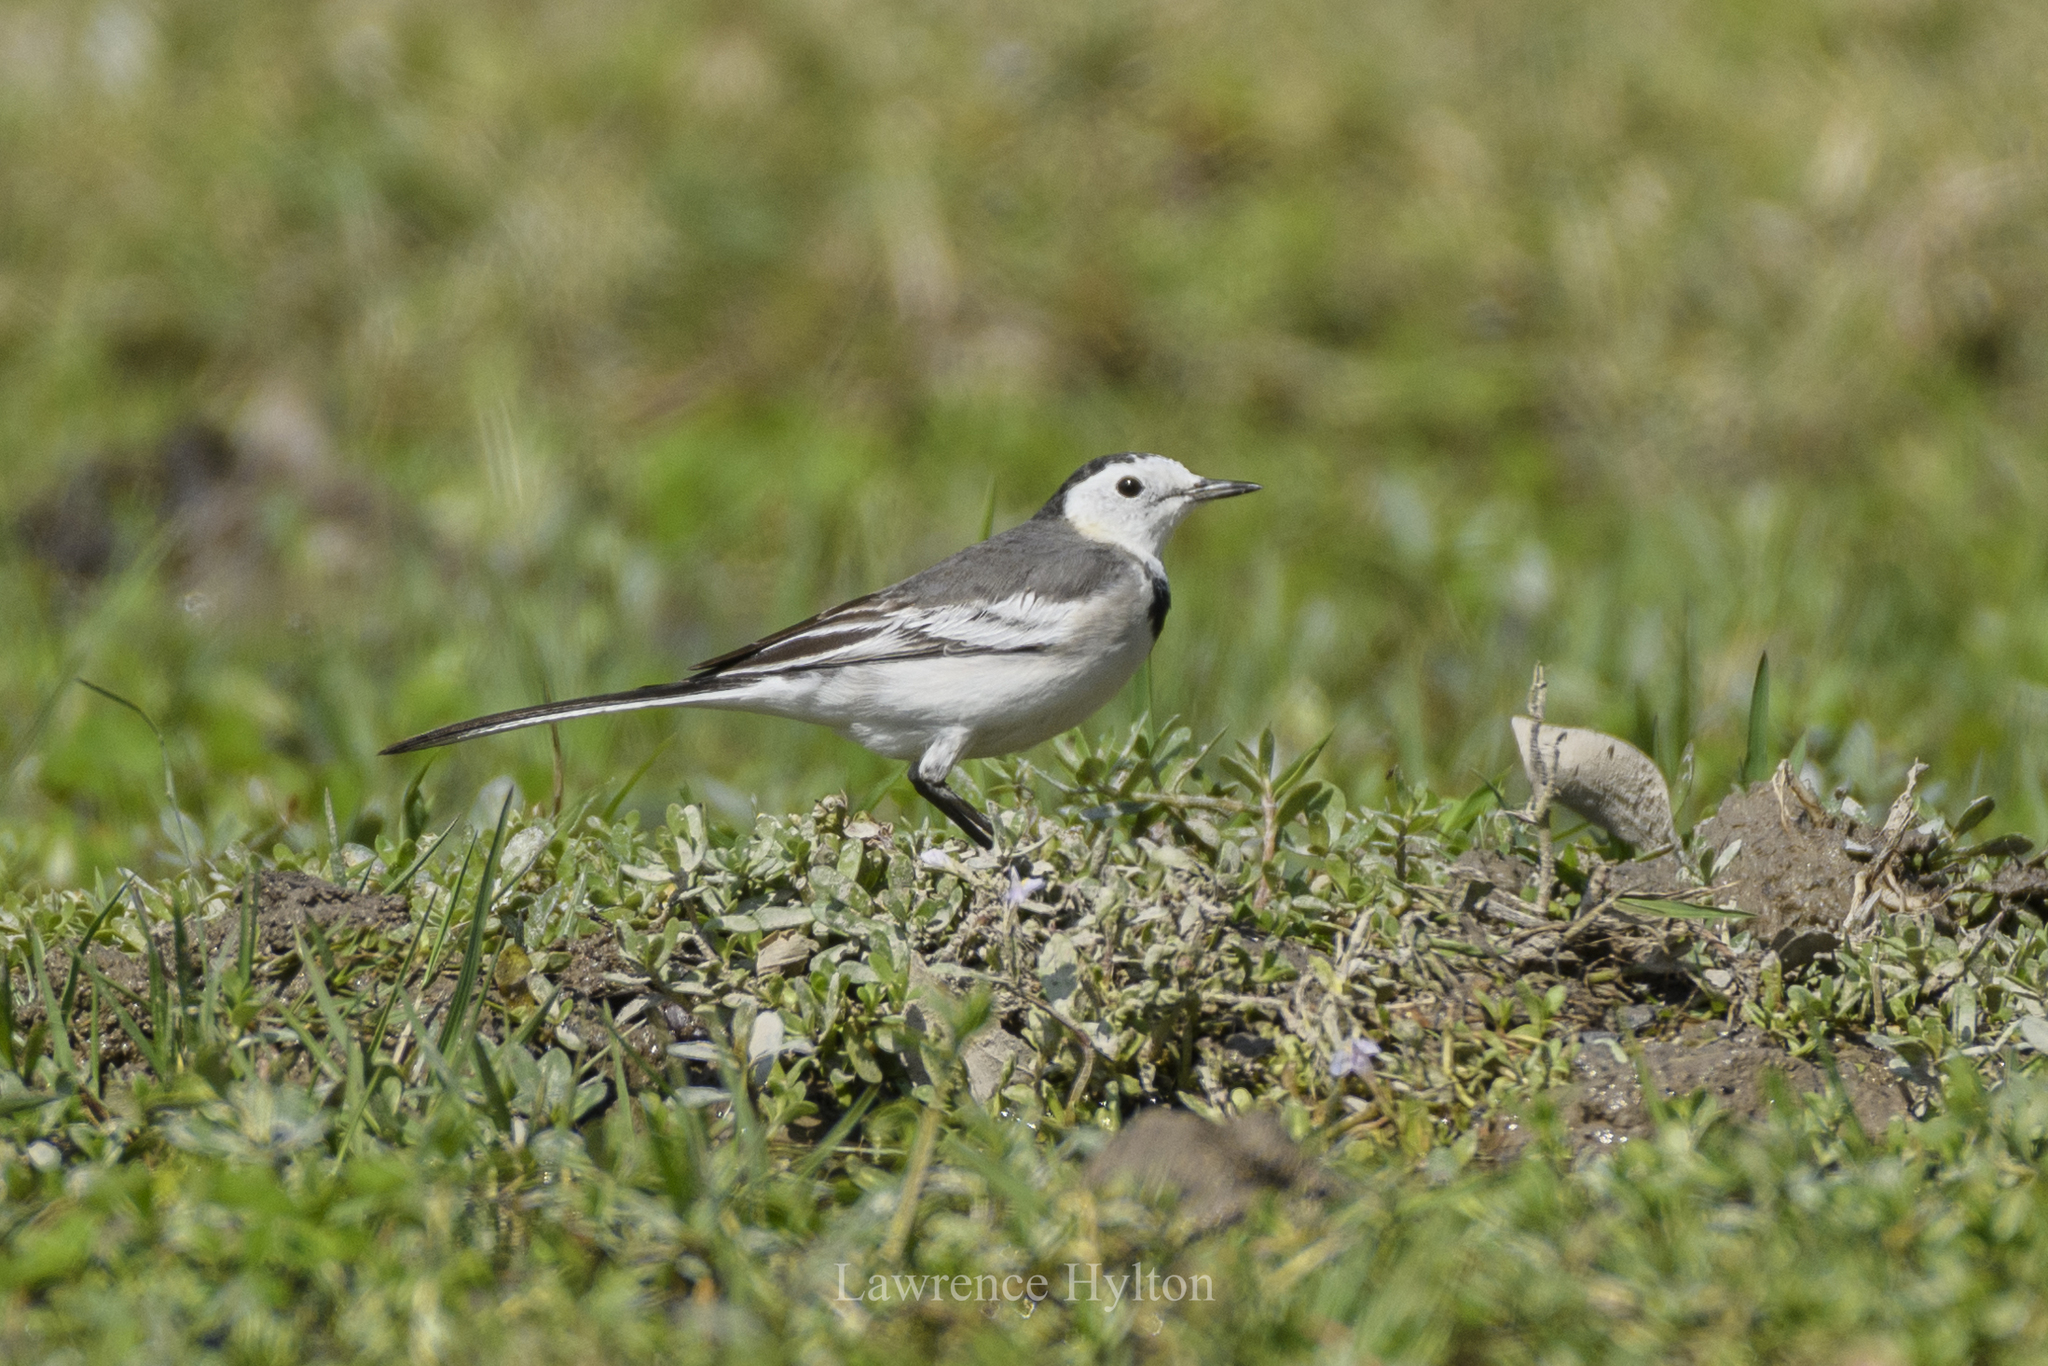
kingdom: Animalia
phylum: Chordata
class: Aves
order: Passeriformes
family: Motacillidae
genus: Motacilla
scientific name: Motacilla alba
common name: White wagtail
